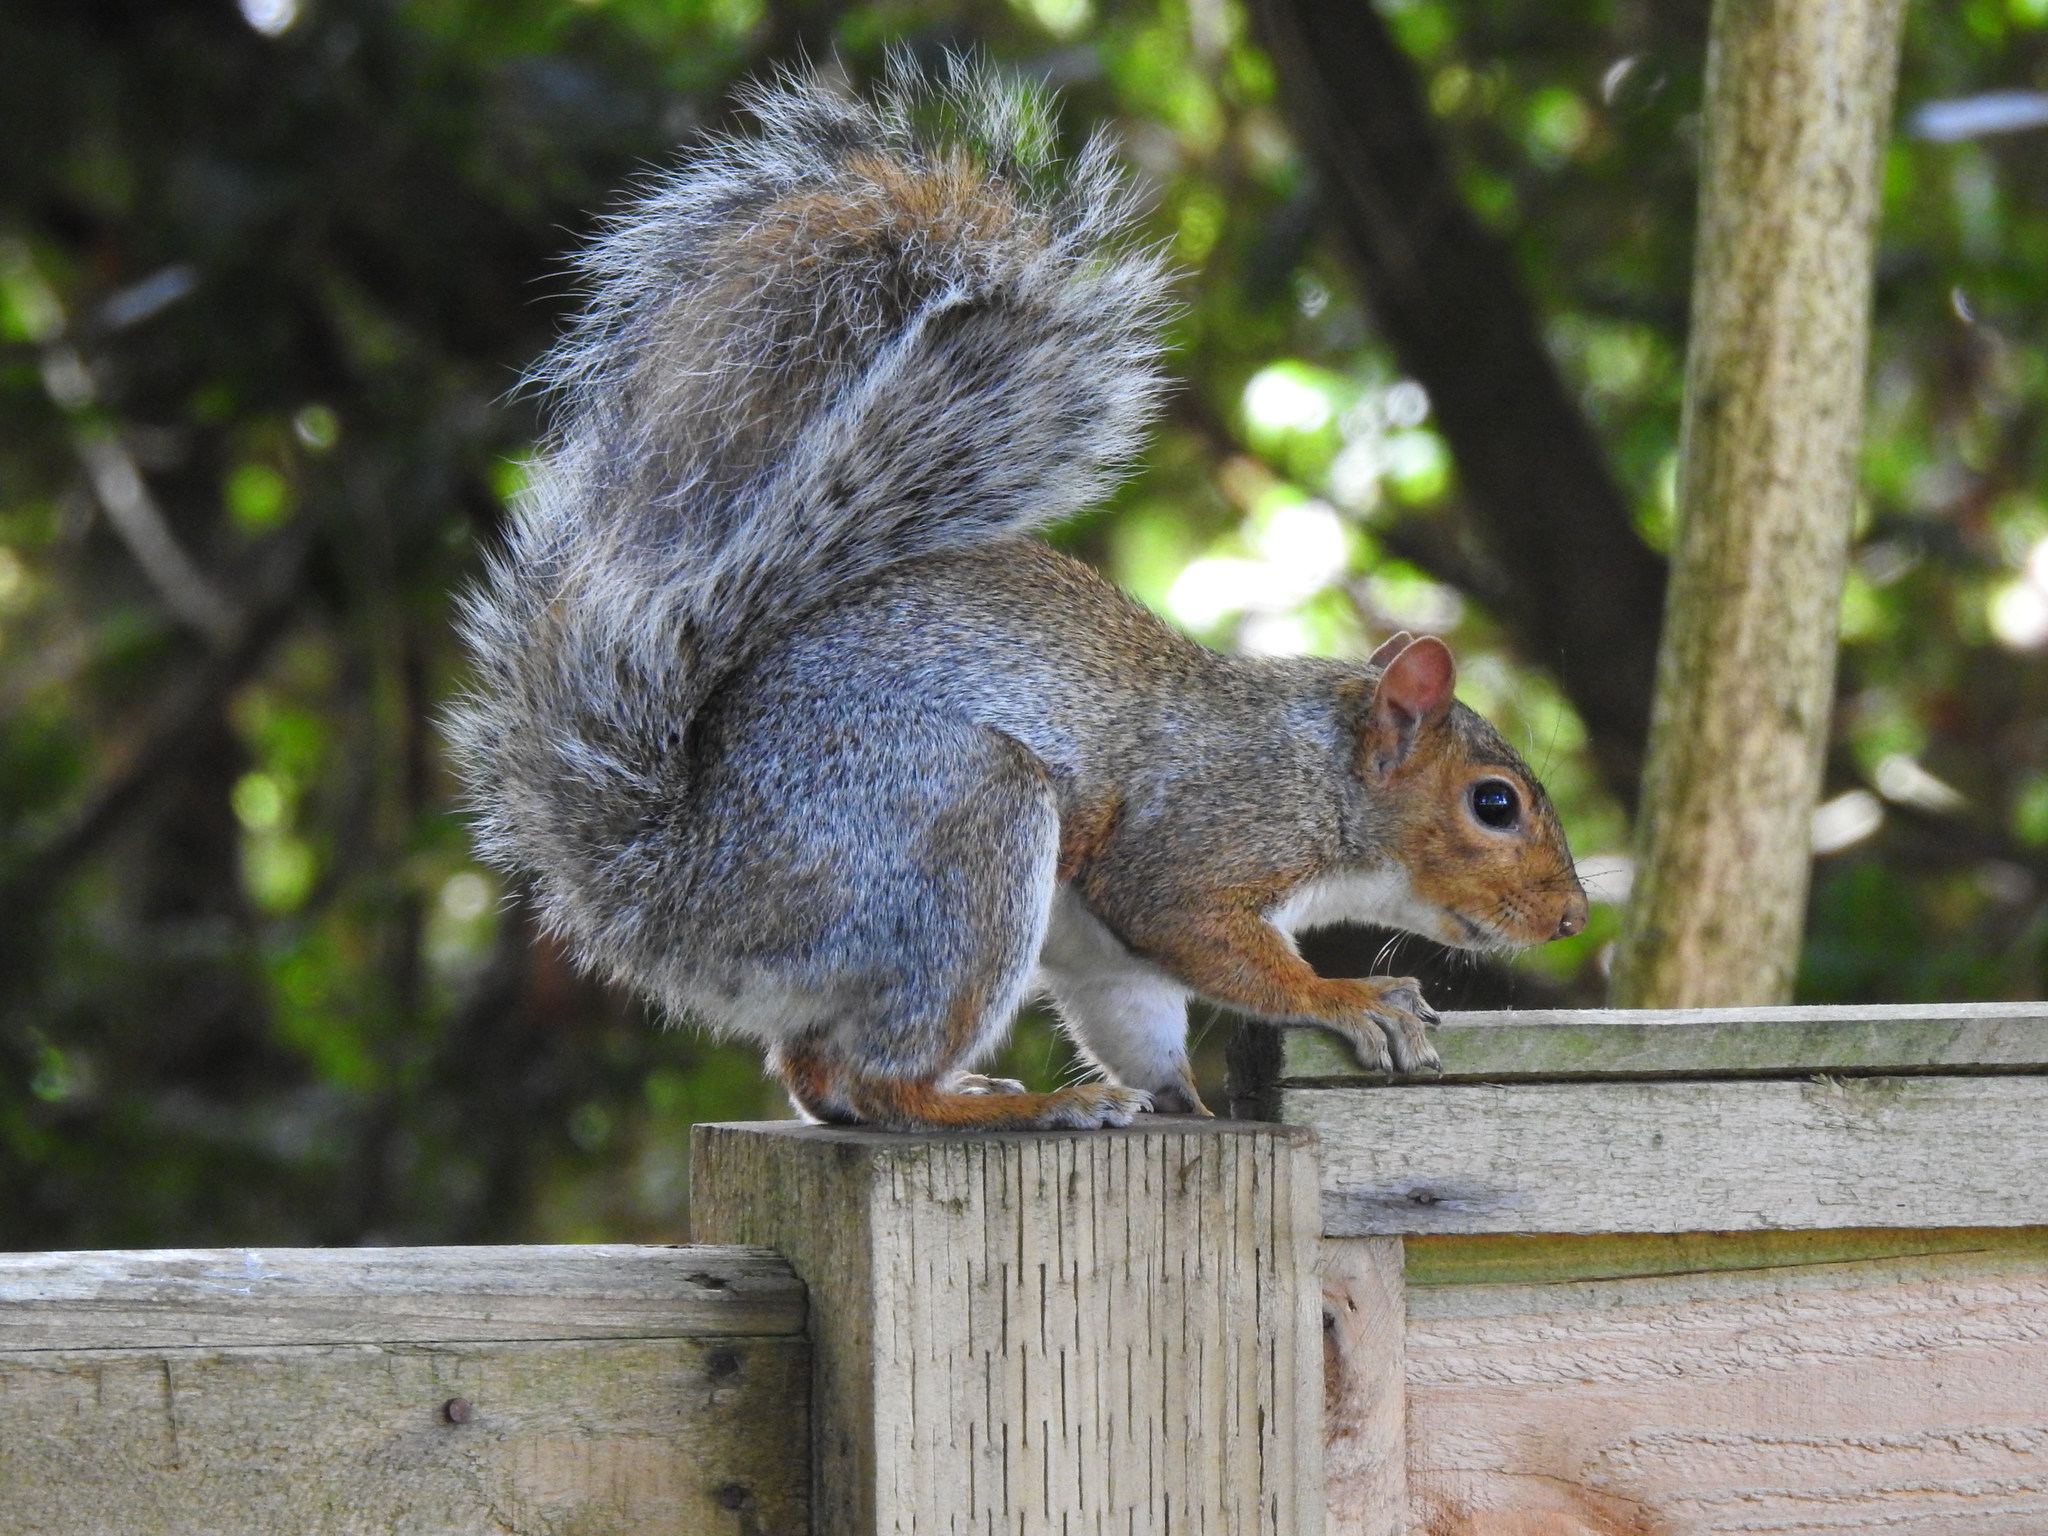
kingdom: Animalia
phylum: Chordata
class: Mammalia
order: Rodentia
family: Sciuridae
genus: Sciurus
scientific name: Sciurus carolinensis
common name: Eastern gray squirrel
